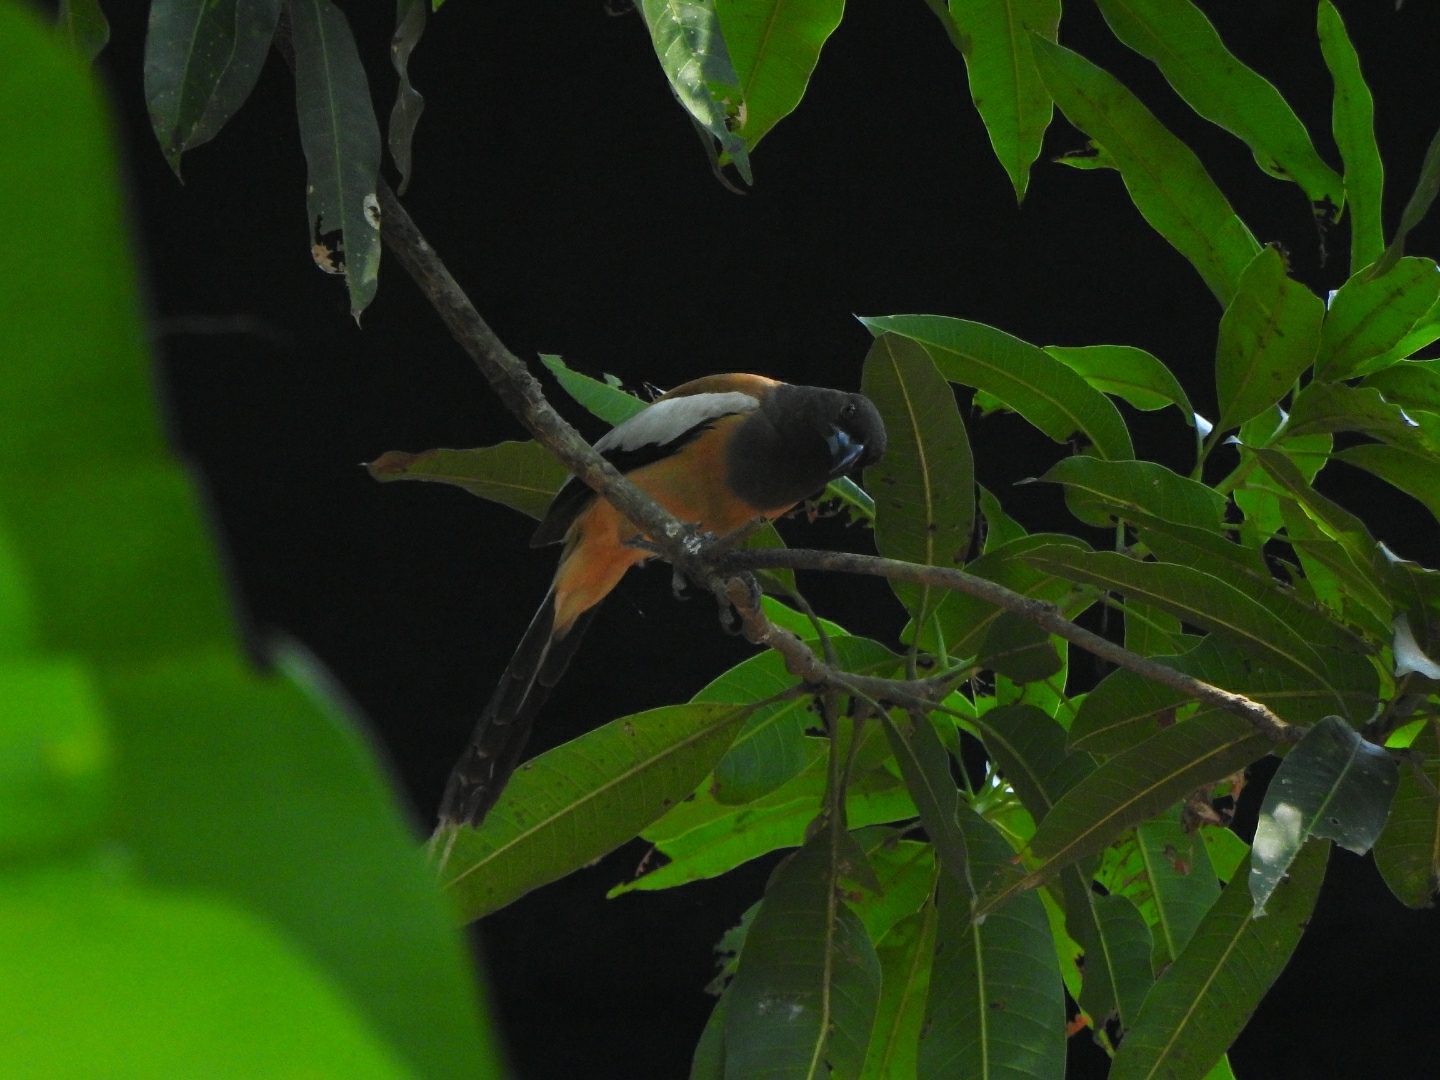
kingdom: Animalia
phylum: Chordata
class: Aves
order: Passeriformes
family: Corvidae
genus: Dendrocitta
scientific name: Dendrocitta vagabunda
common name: Rufous treepie
